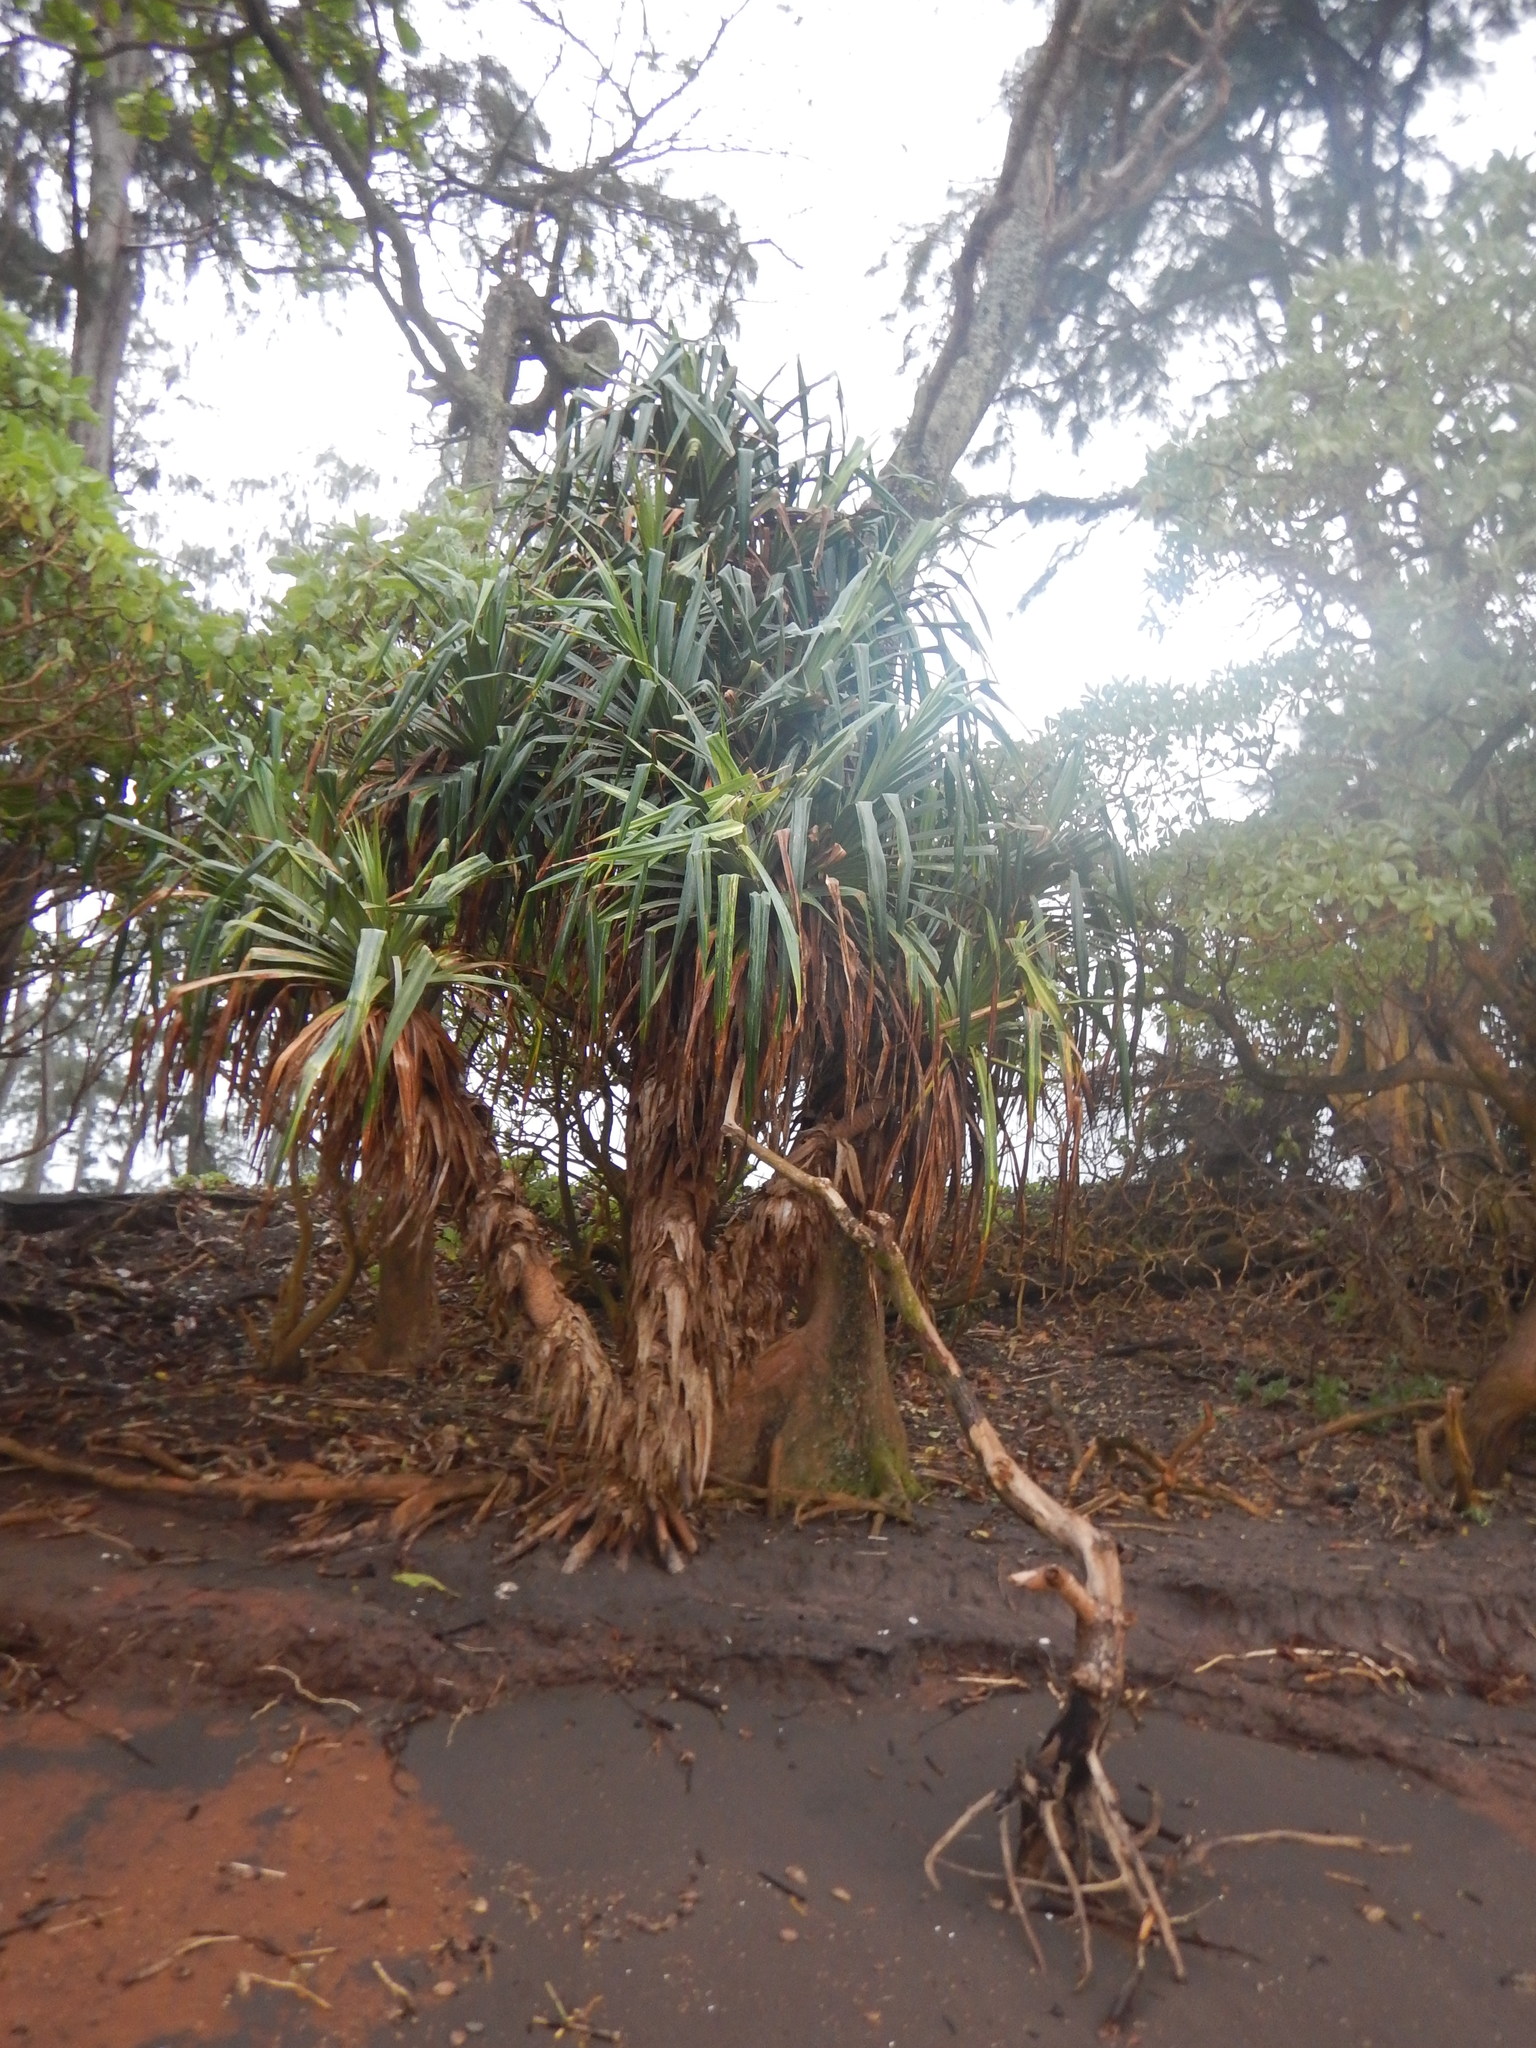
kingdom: Plantae
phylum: Tracheophyta
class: Liliopsida
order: Pandanales
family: Pandanaceae
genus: Pandanus
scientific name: Pandanus tectorius
